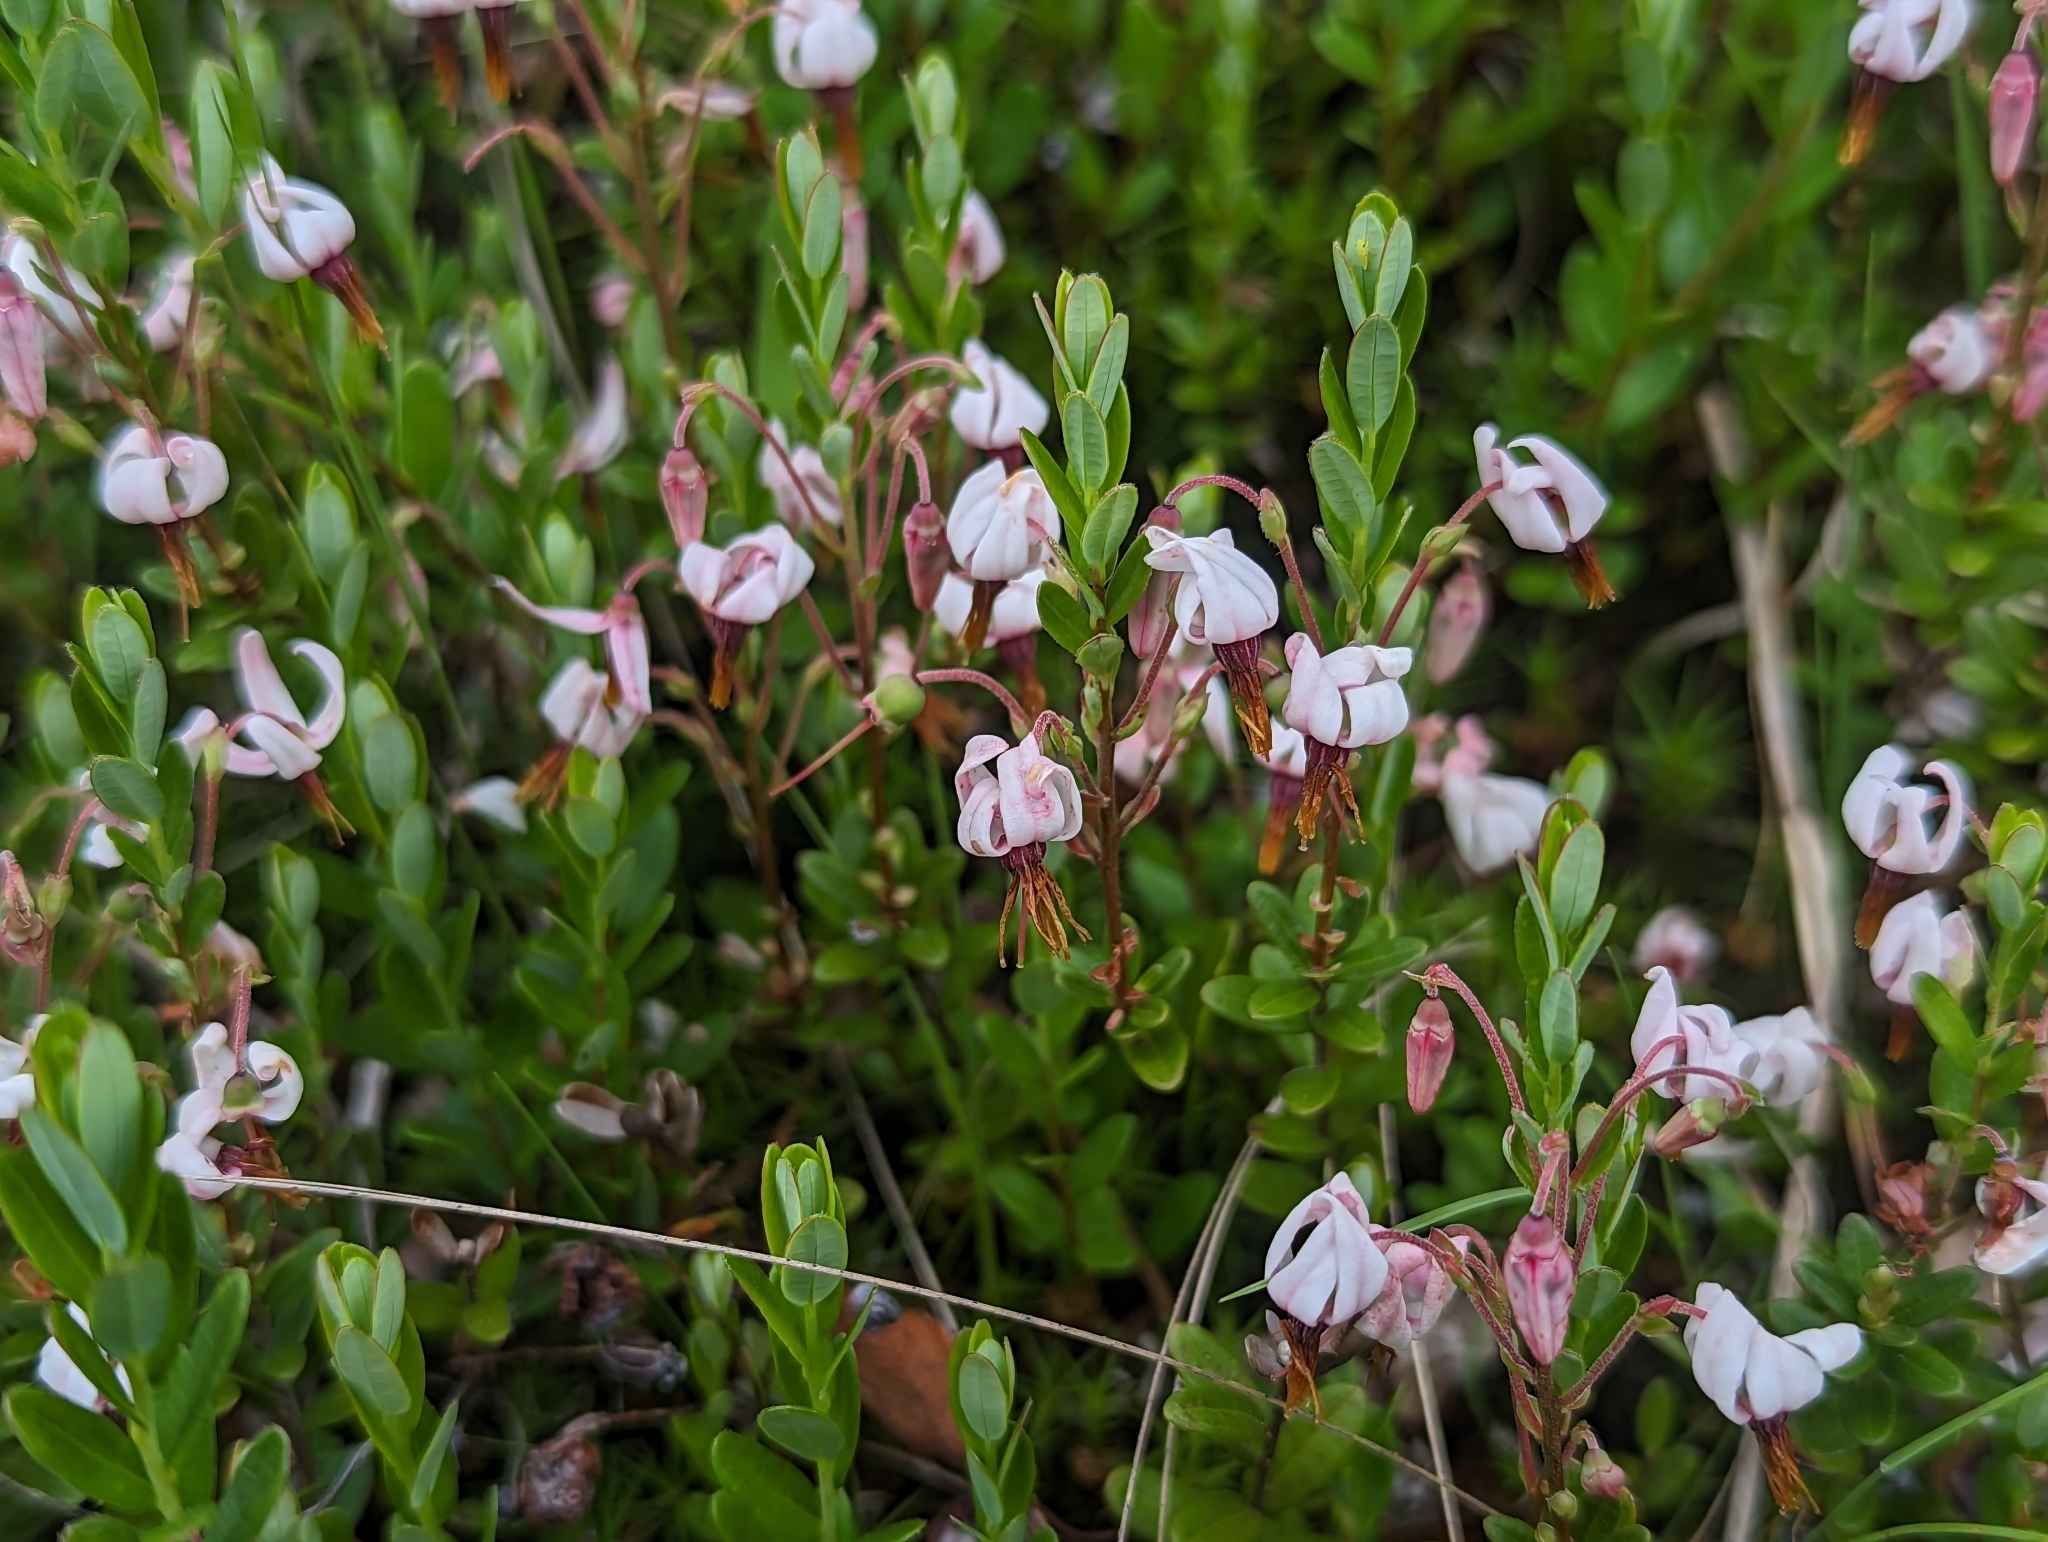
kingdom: Plantae
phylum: Tracheophyta
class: Magnoliopsida
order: Ericales
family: Ericaceae
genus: Vaccinium
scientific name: Vaccinium macrocarpon
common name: American cranberry
